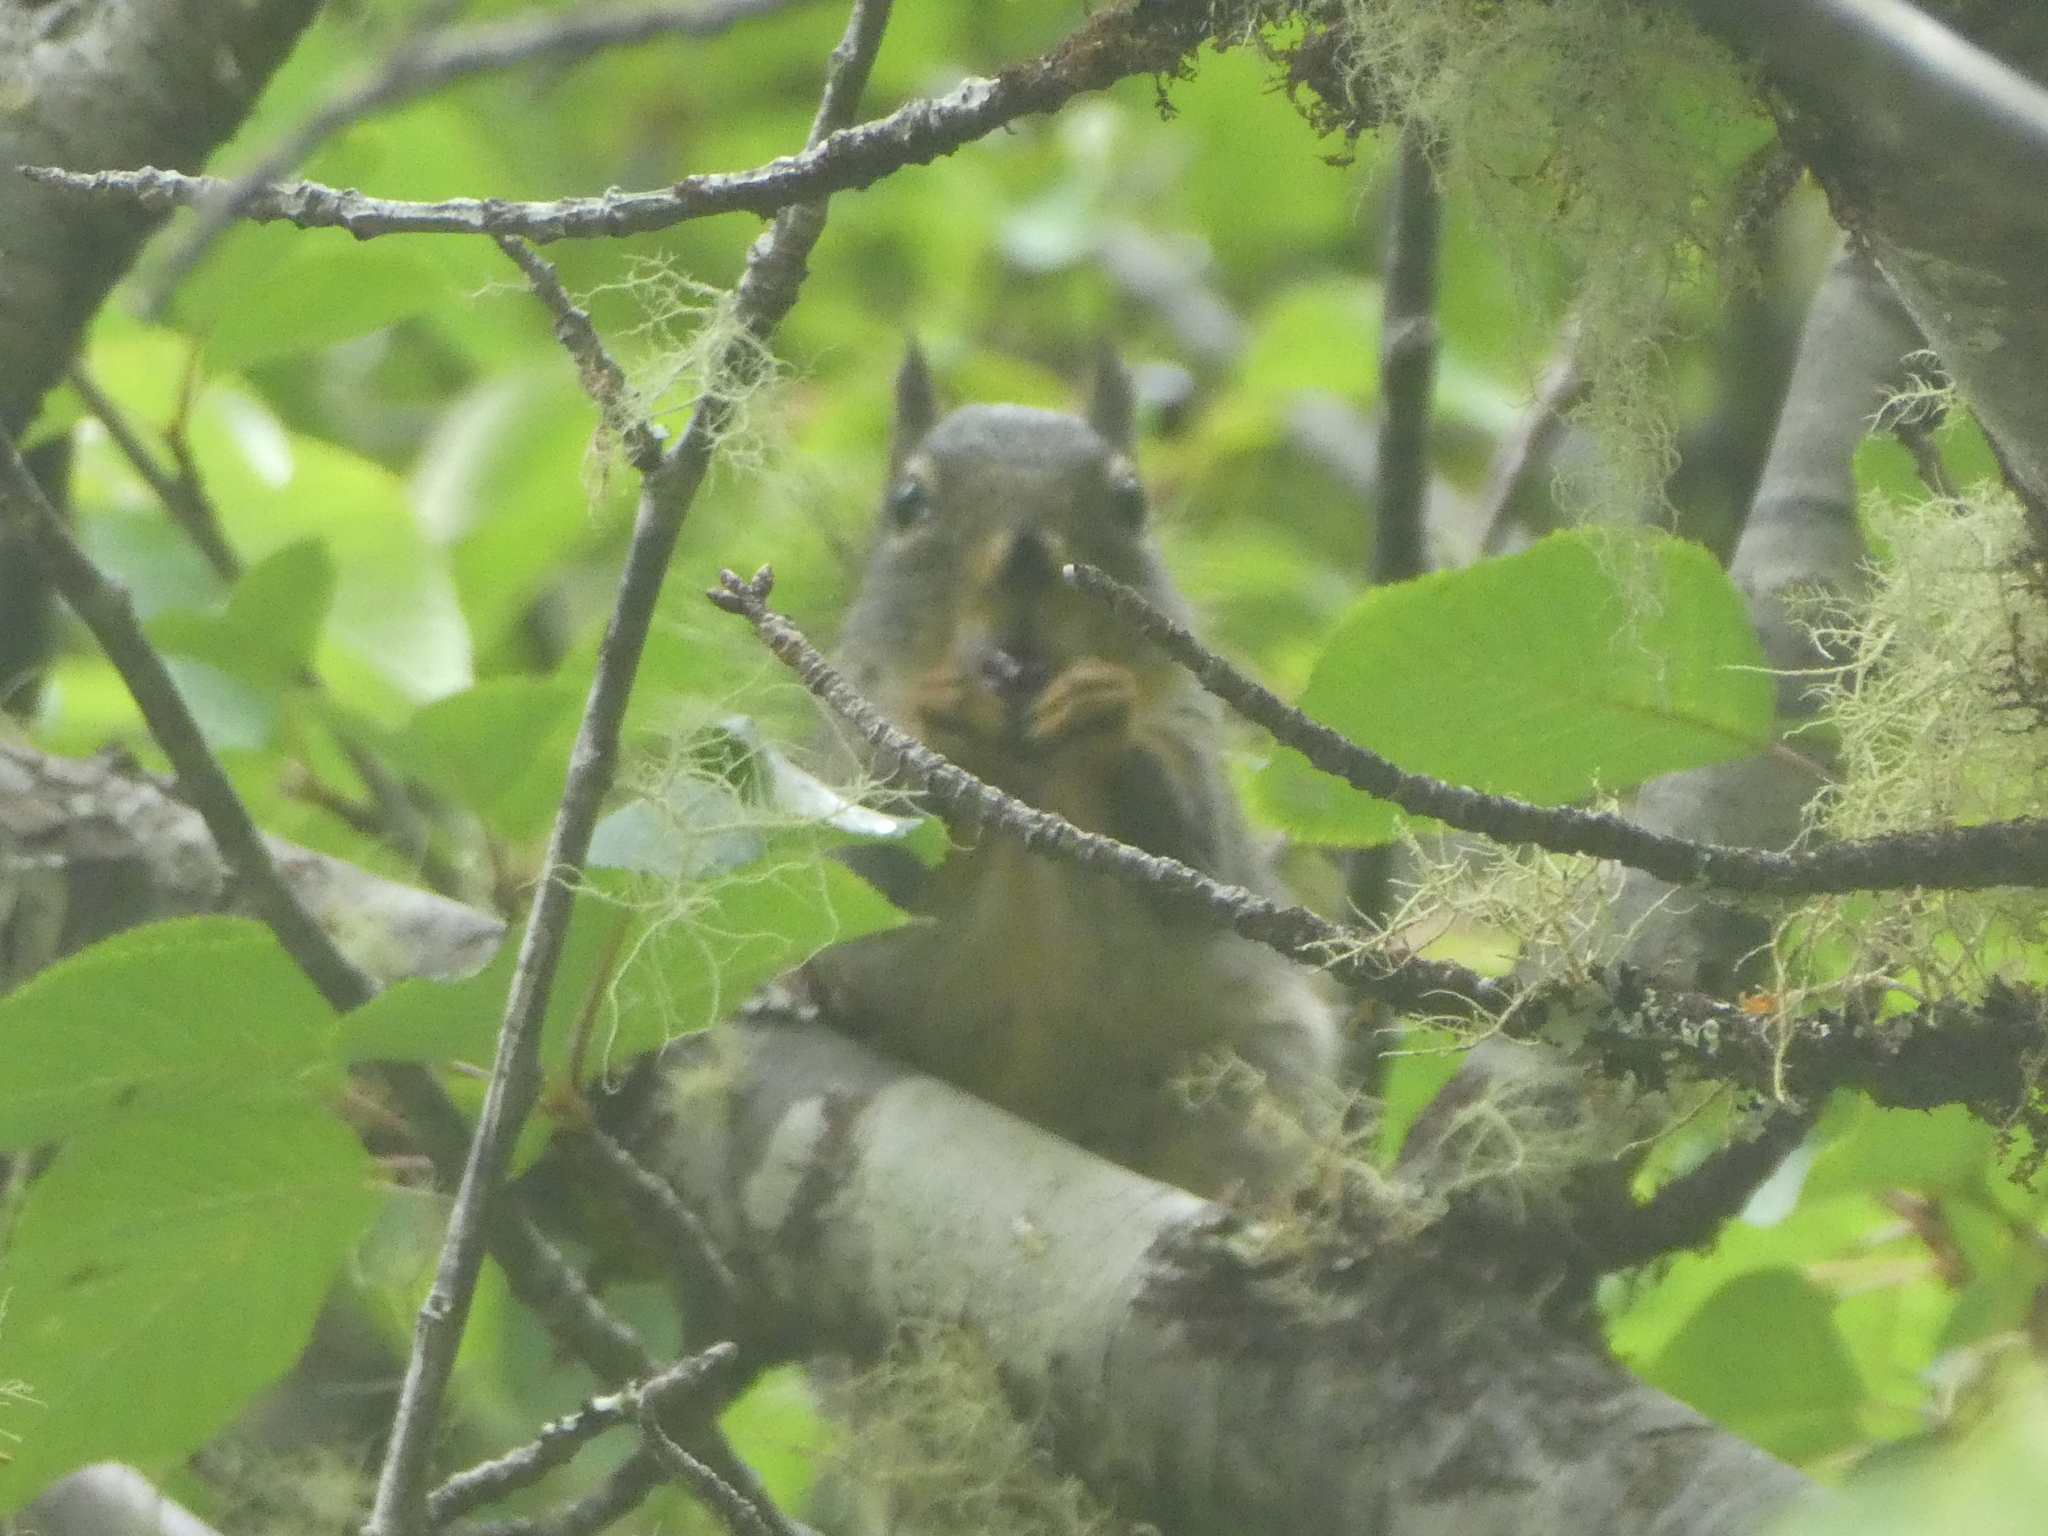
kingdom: Animalia
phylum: Chordata
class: Mammalia
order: Rodentia
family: Sciuridae
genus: Tamiasciurus
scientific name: Tamiasciurus douglasii
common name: Douglas's squirrel
